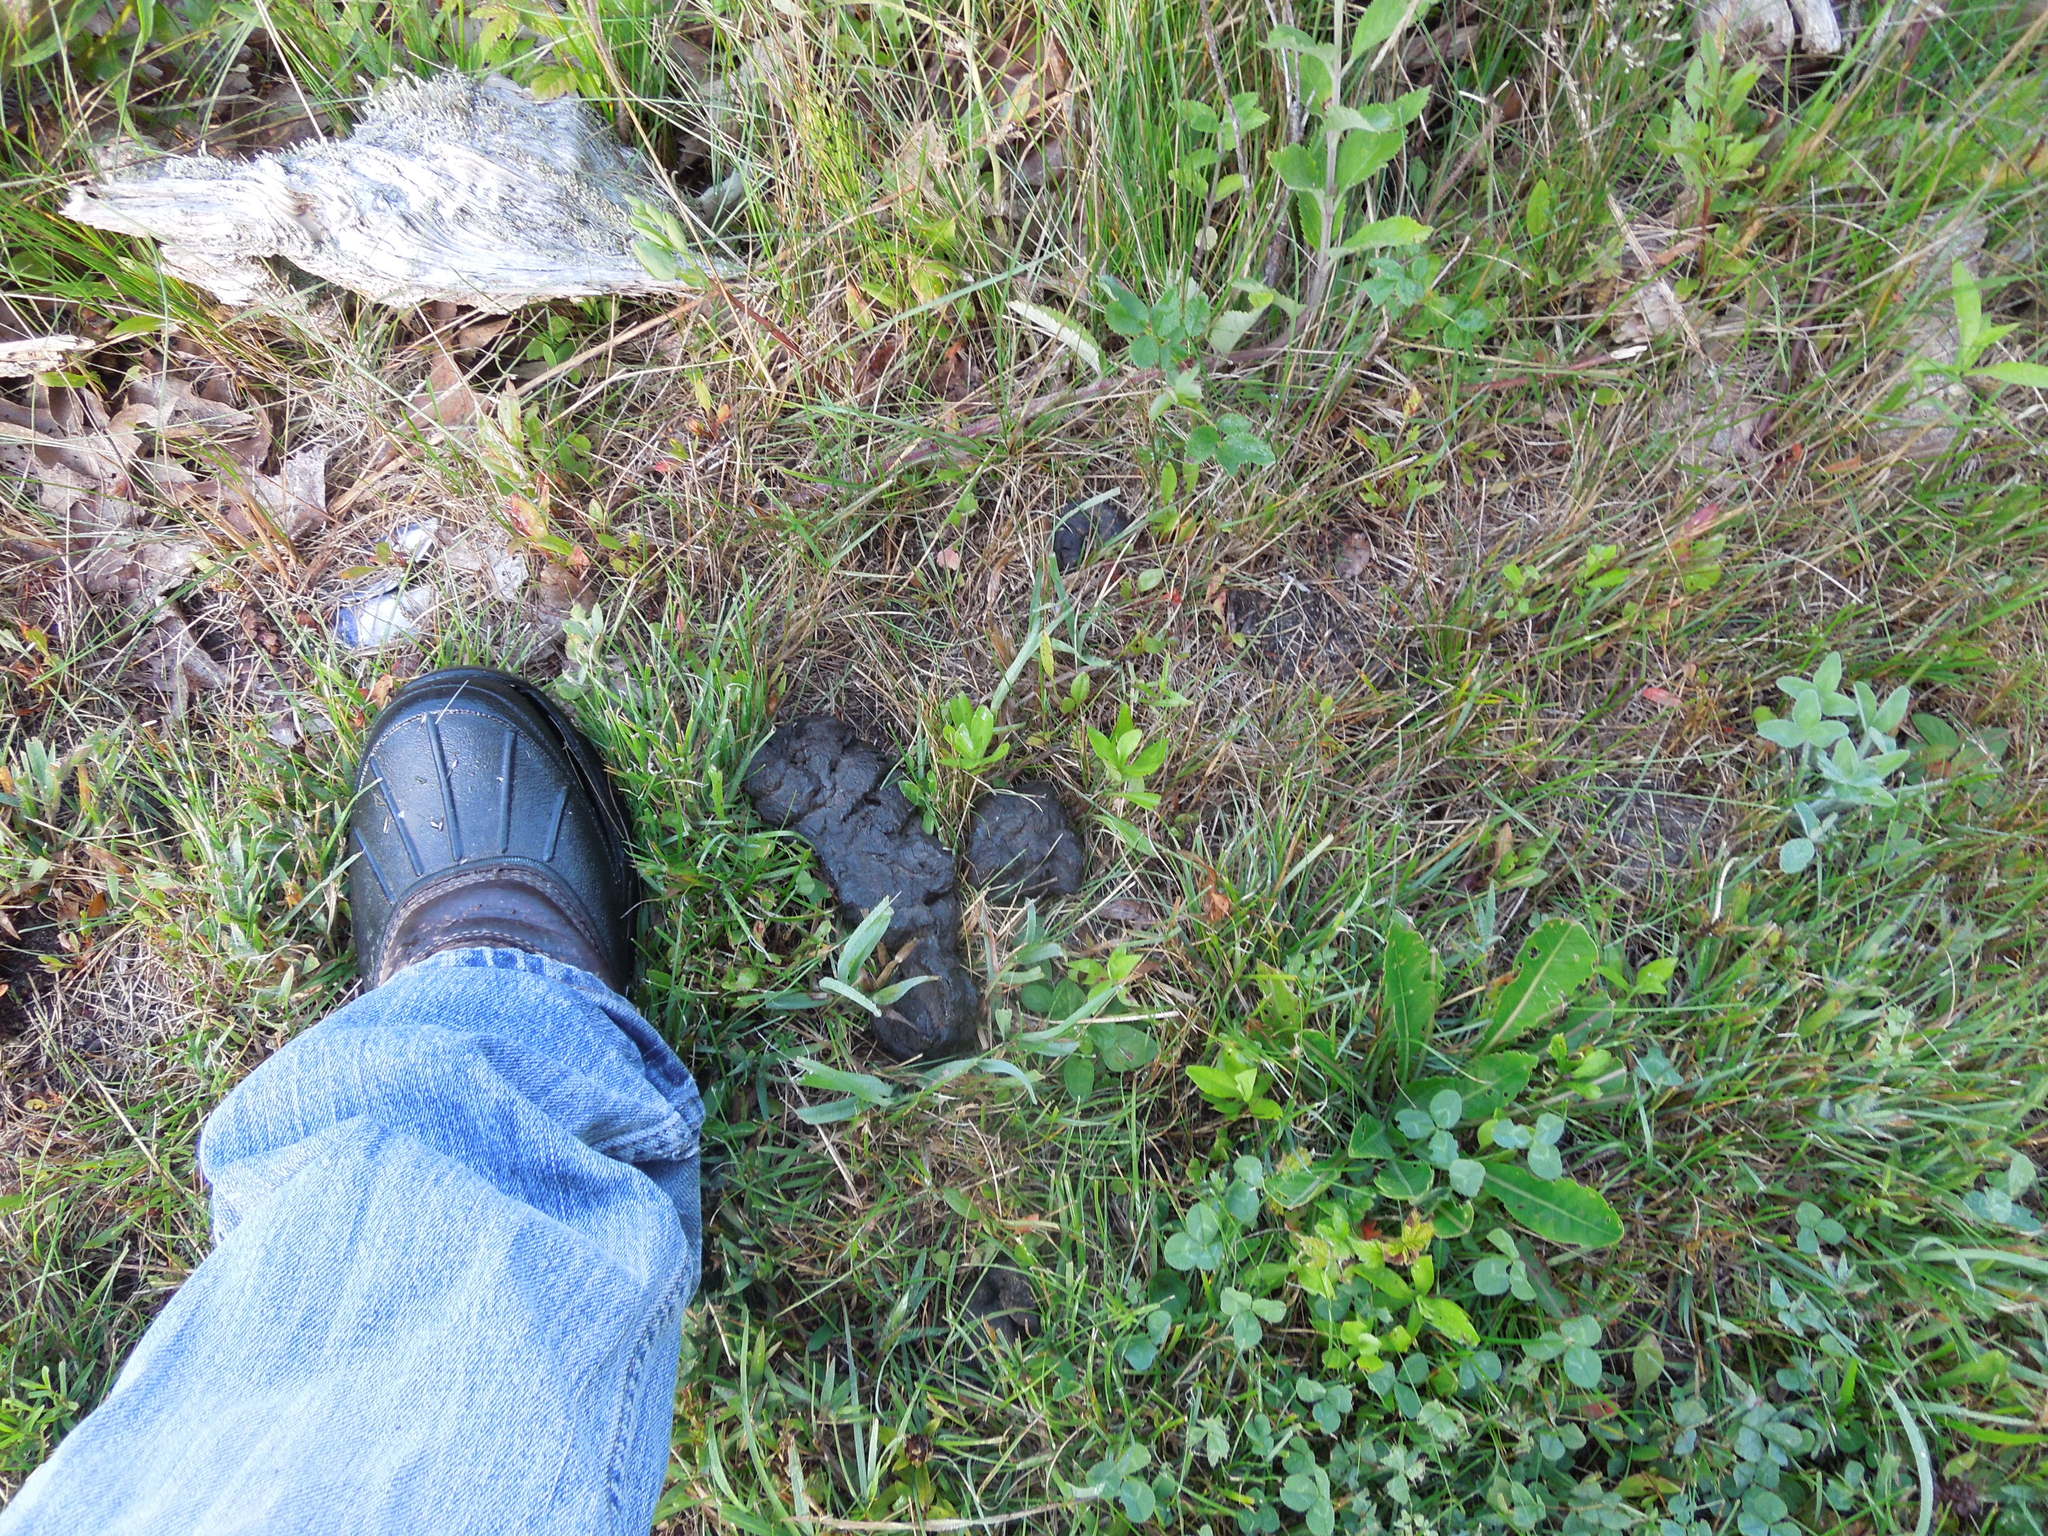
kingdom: Animalia
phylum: Chordata
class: Mammalia
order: Artiodactyla
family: Cervidae
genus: Odocoileus
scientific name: Odocoileus virginianus
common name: White-tailed deer
